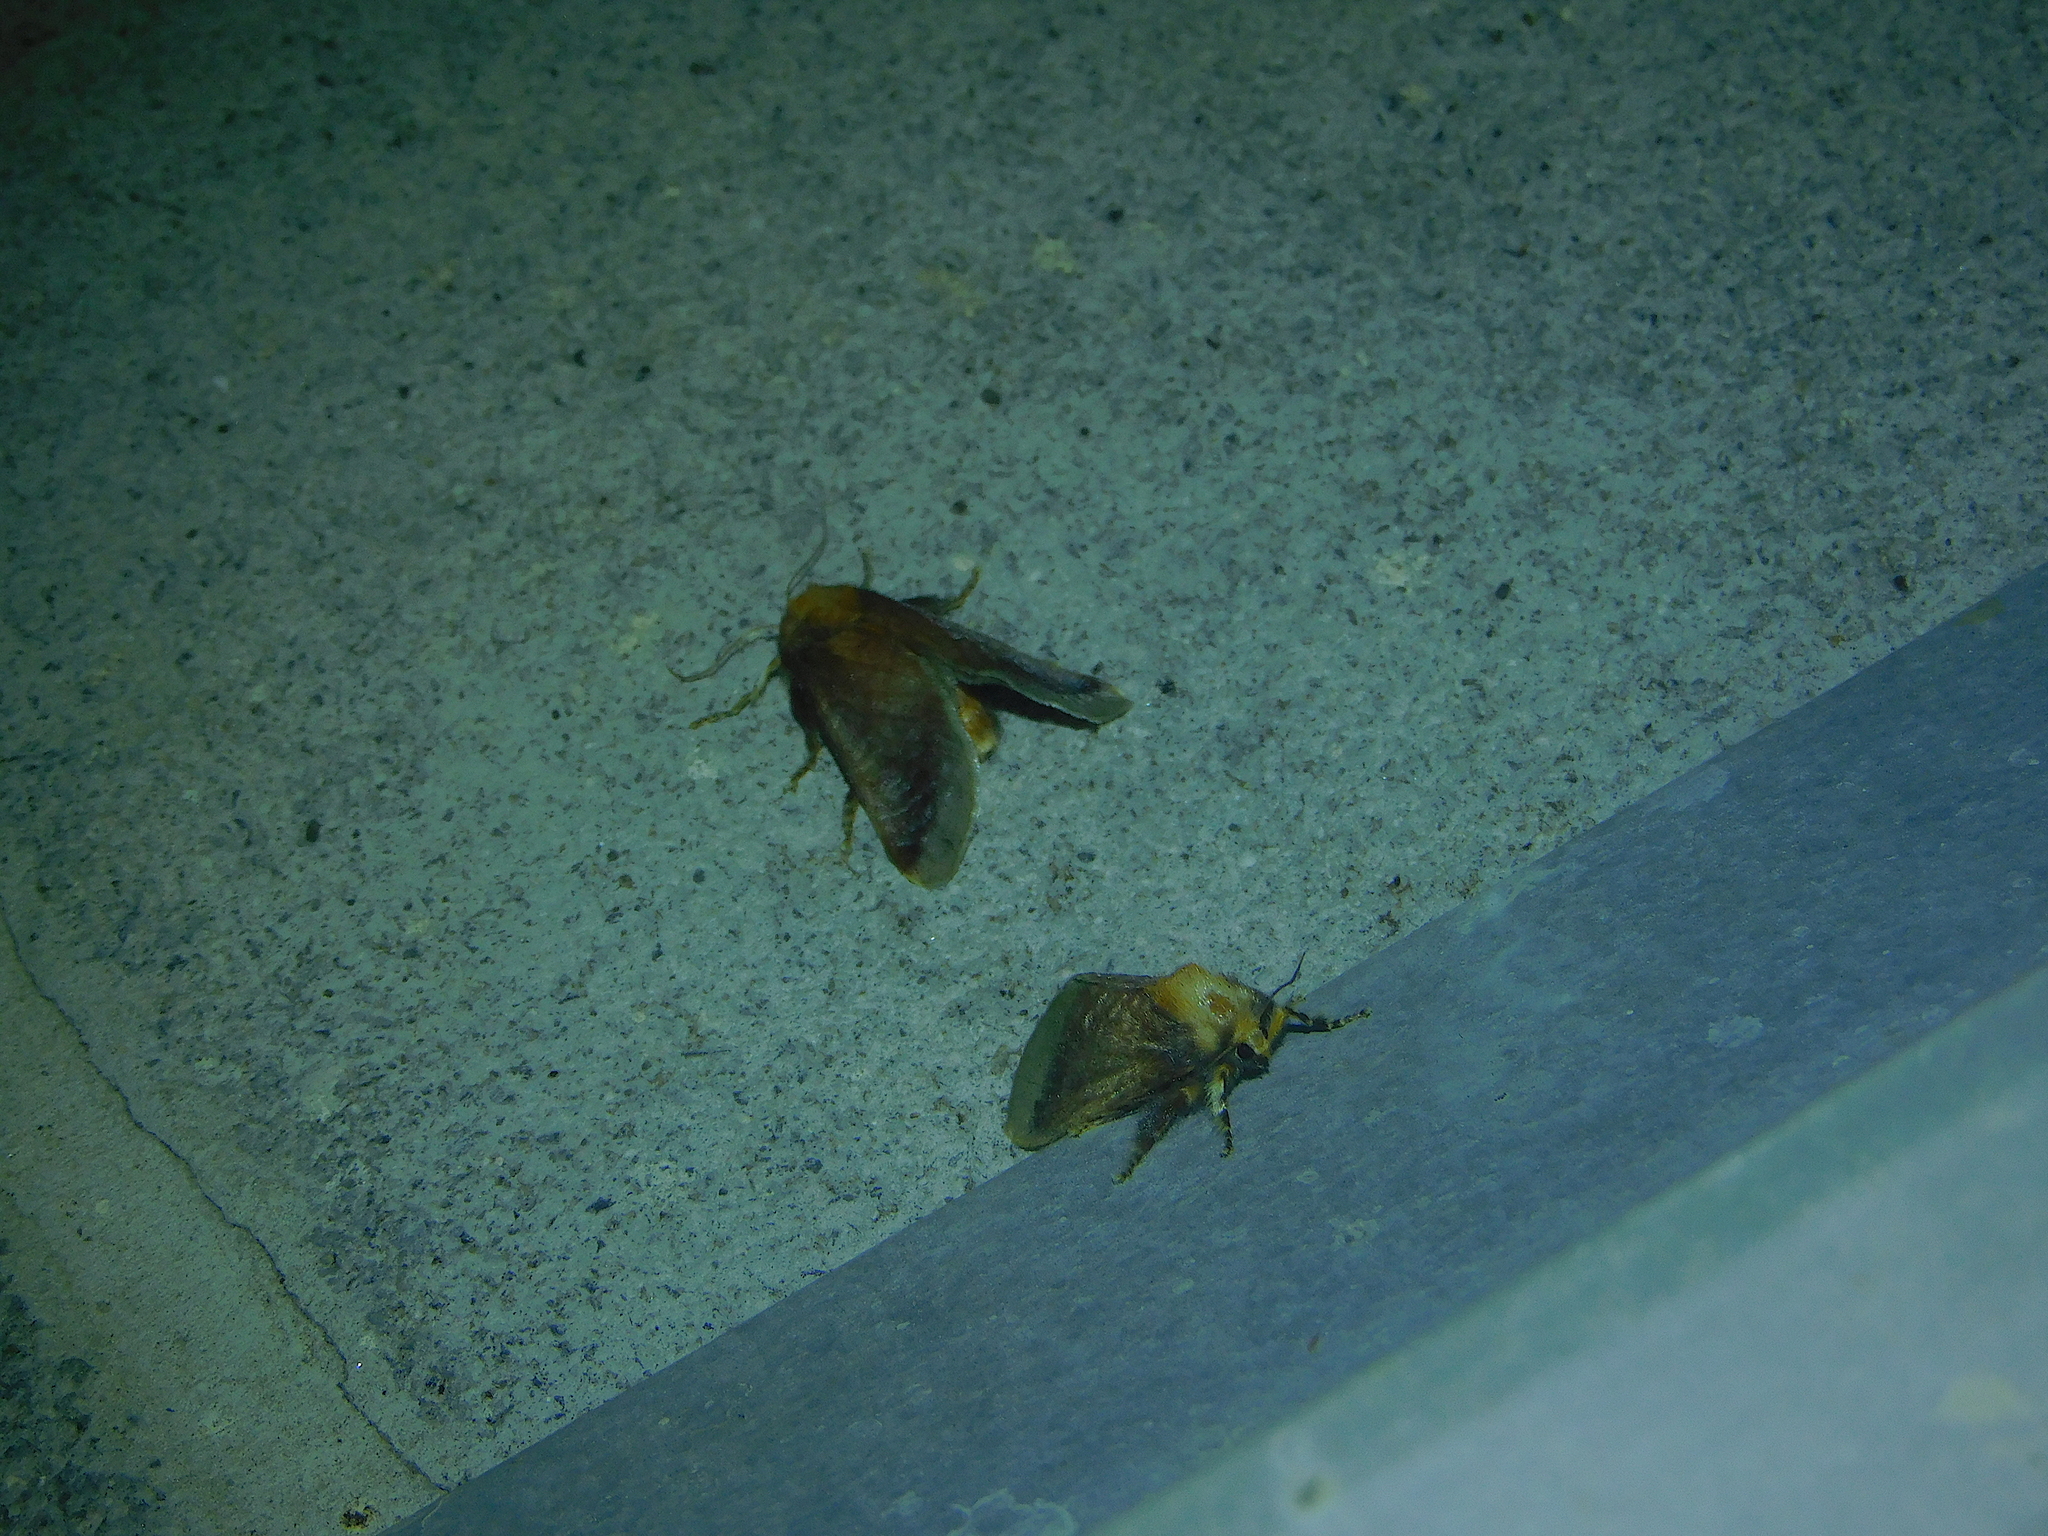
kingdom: Animalia
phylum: Arthropoda
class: Insecta
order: Lepidoptera
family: Limacodidae
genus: Doratifera
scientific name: Doratifera oxleyi
